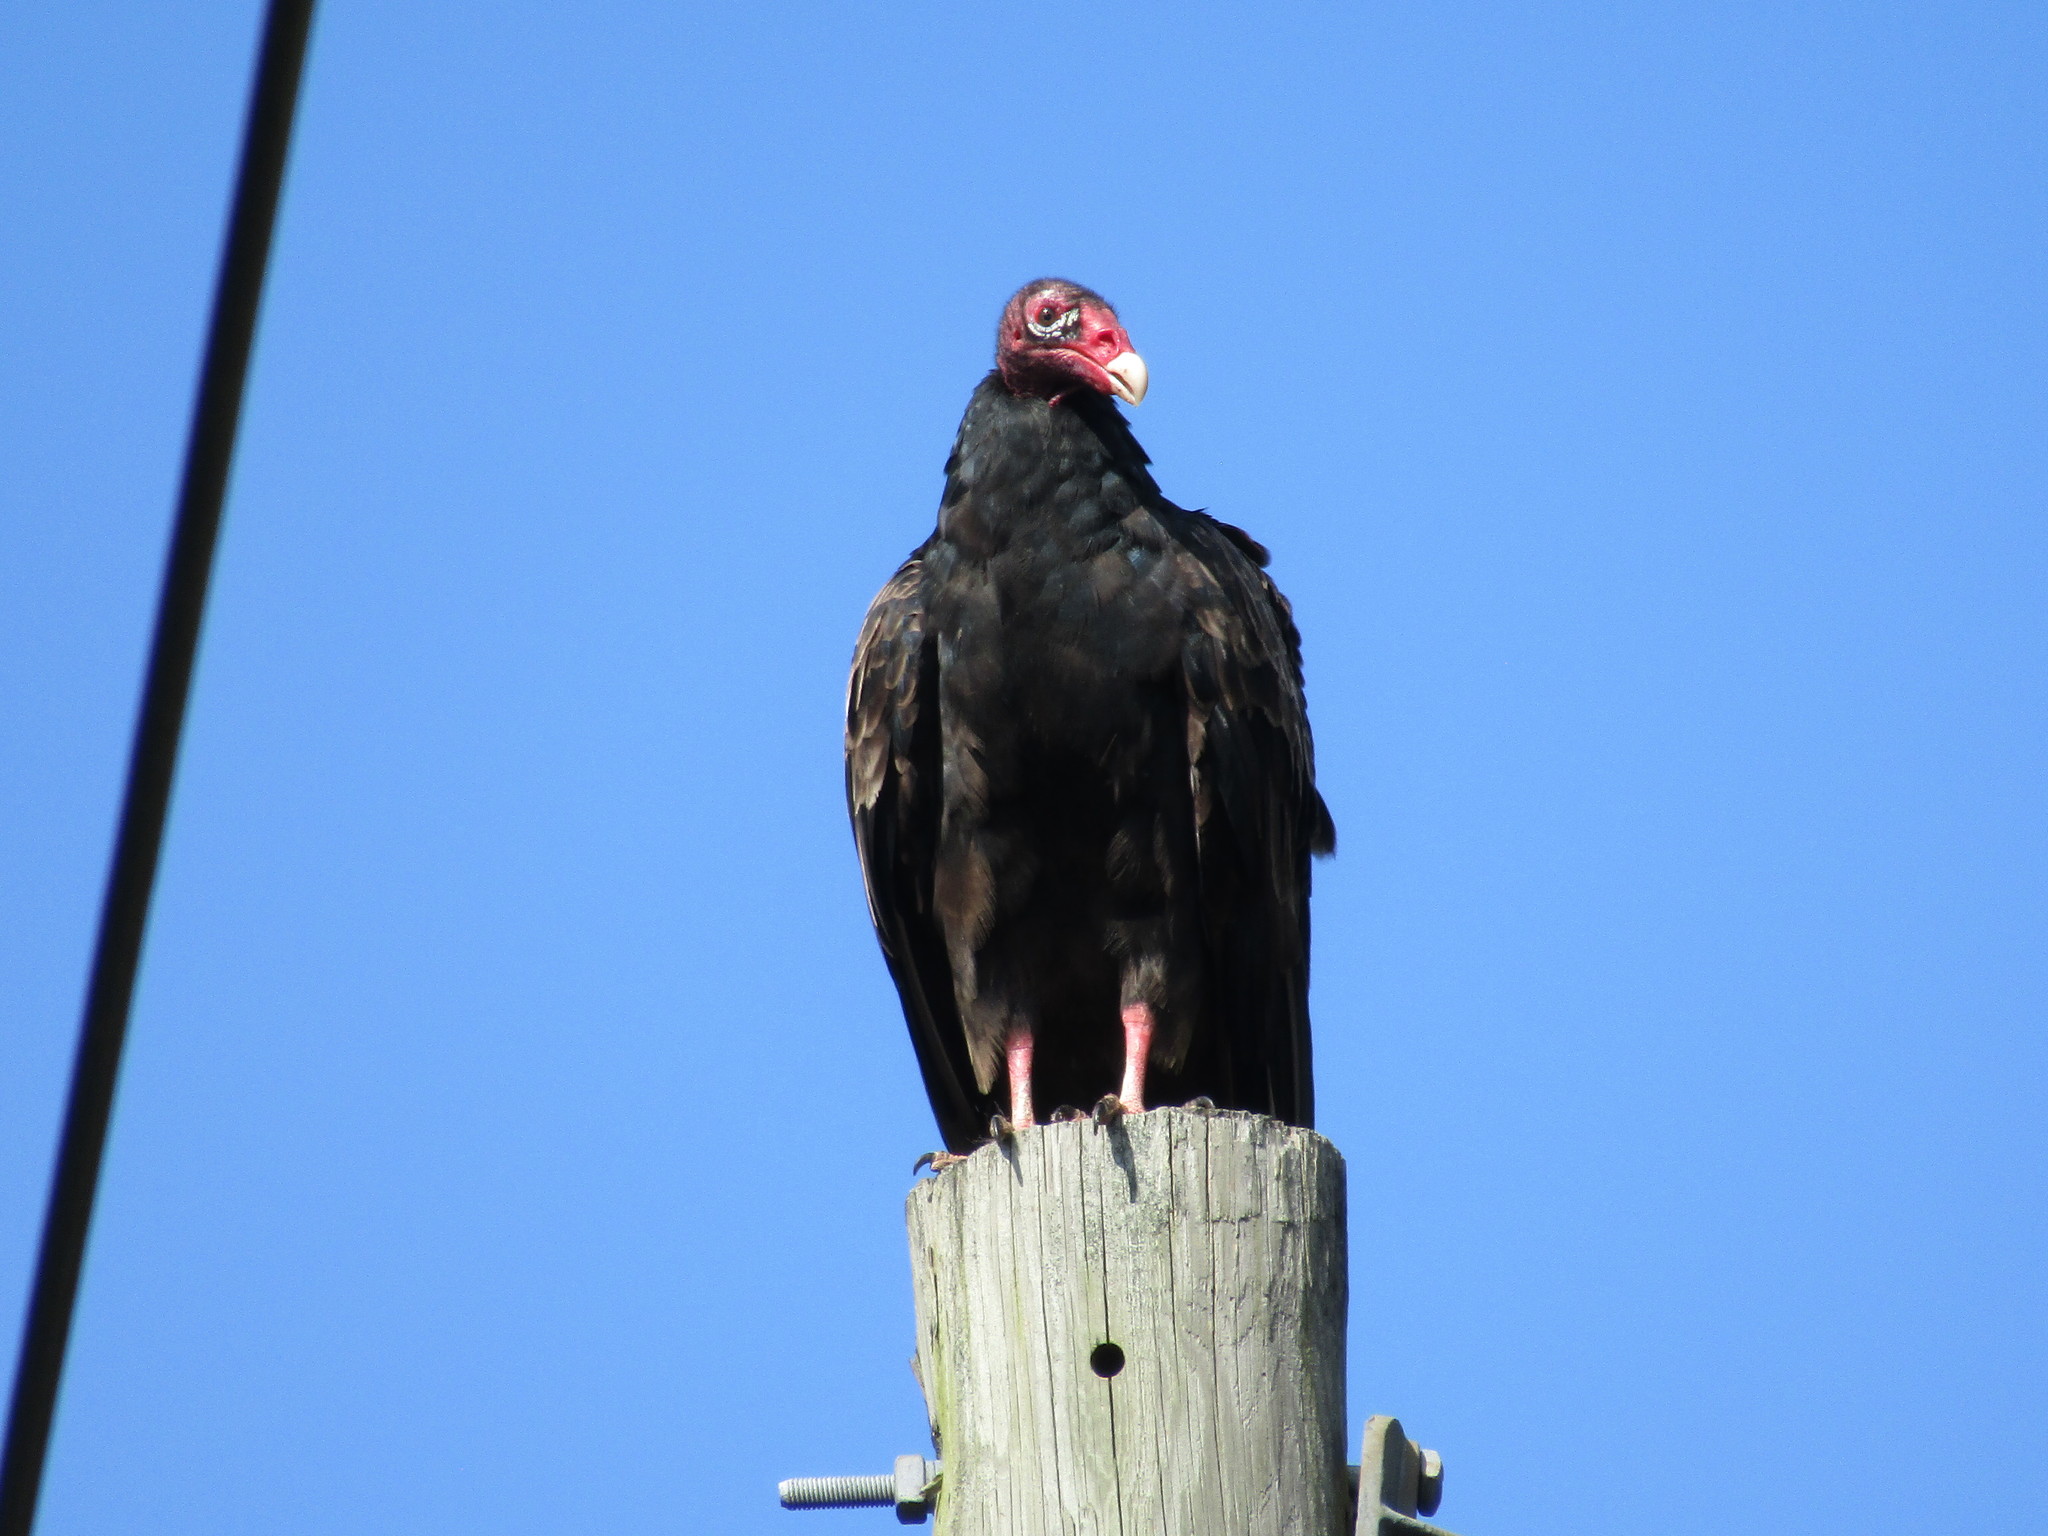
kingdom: Animalia
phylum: Chordata
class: Aves
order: Accipitriformes
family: Cathartidae
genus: Cathartes
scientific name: Cathartes aura
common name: Turkey vulture
